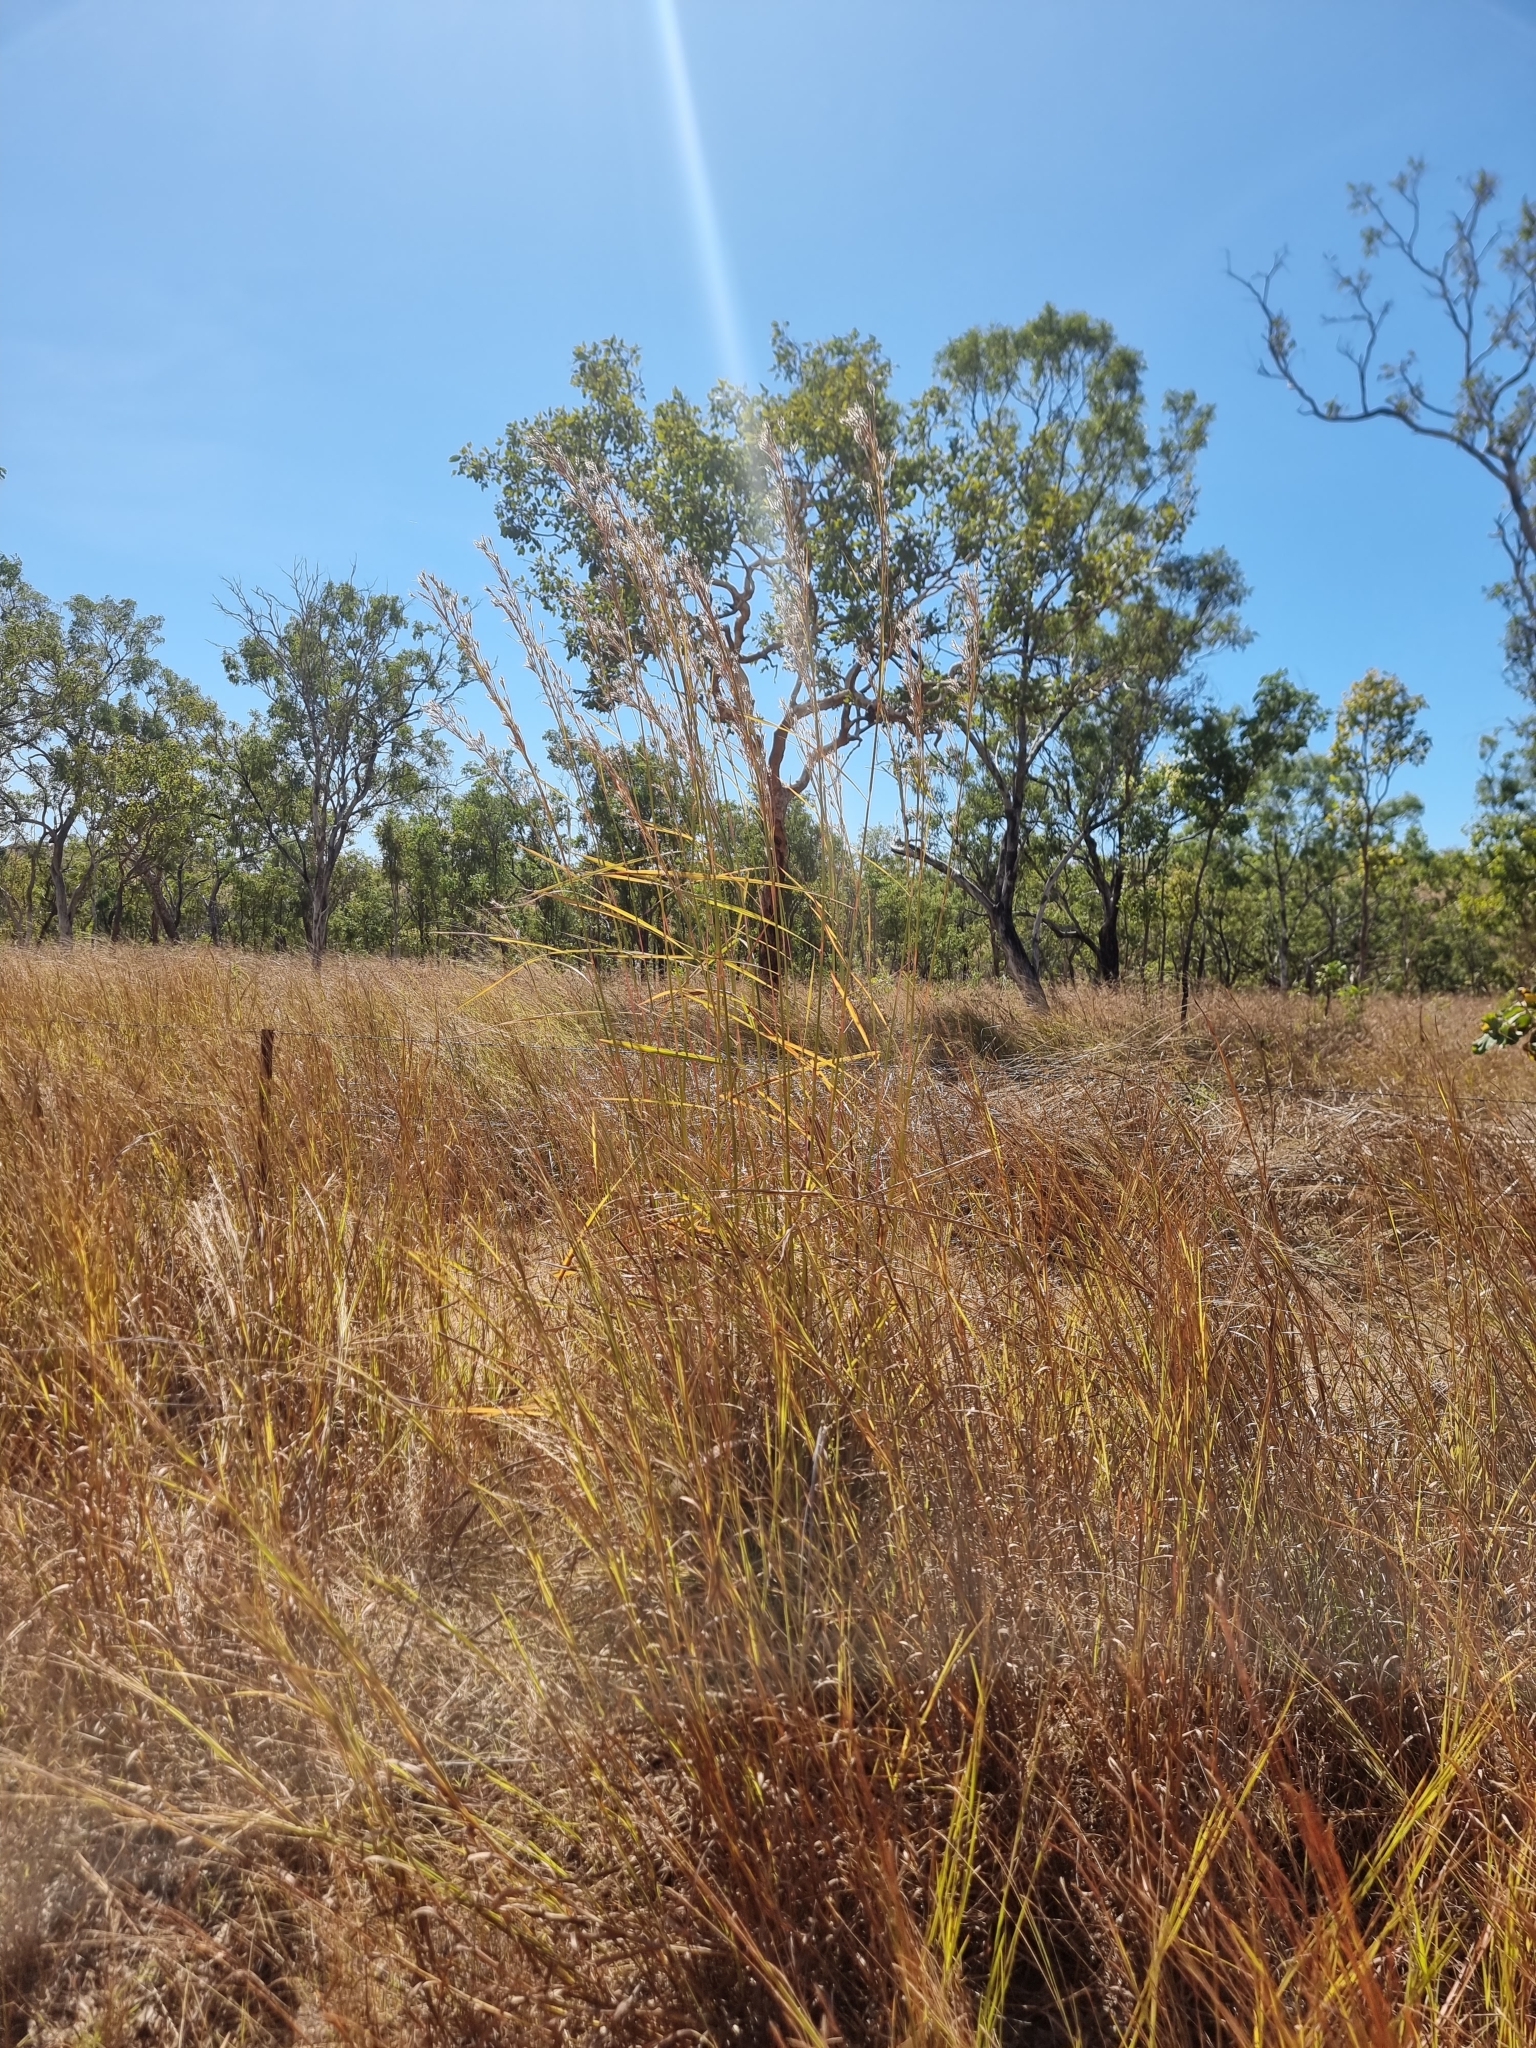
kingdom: Plantae
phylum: Tracheophyta
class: Liliopsida
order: Poales
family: Poaceae
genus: Andropogon
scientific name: Andropogon gayanus
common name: Tambuki grass
